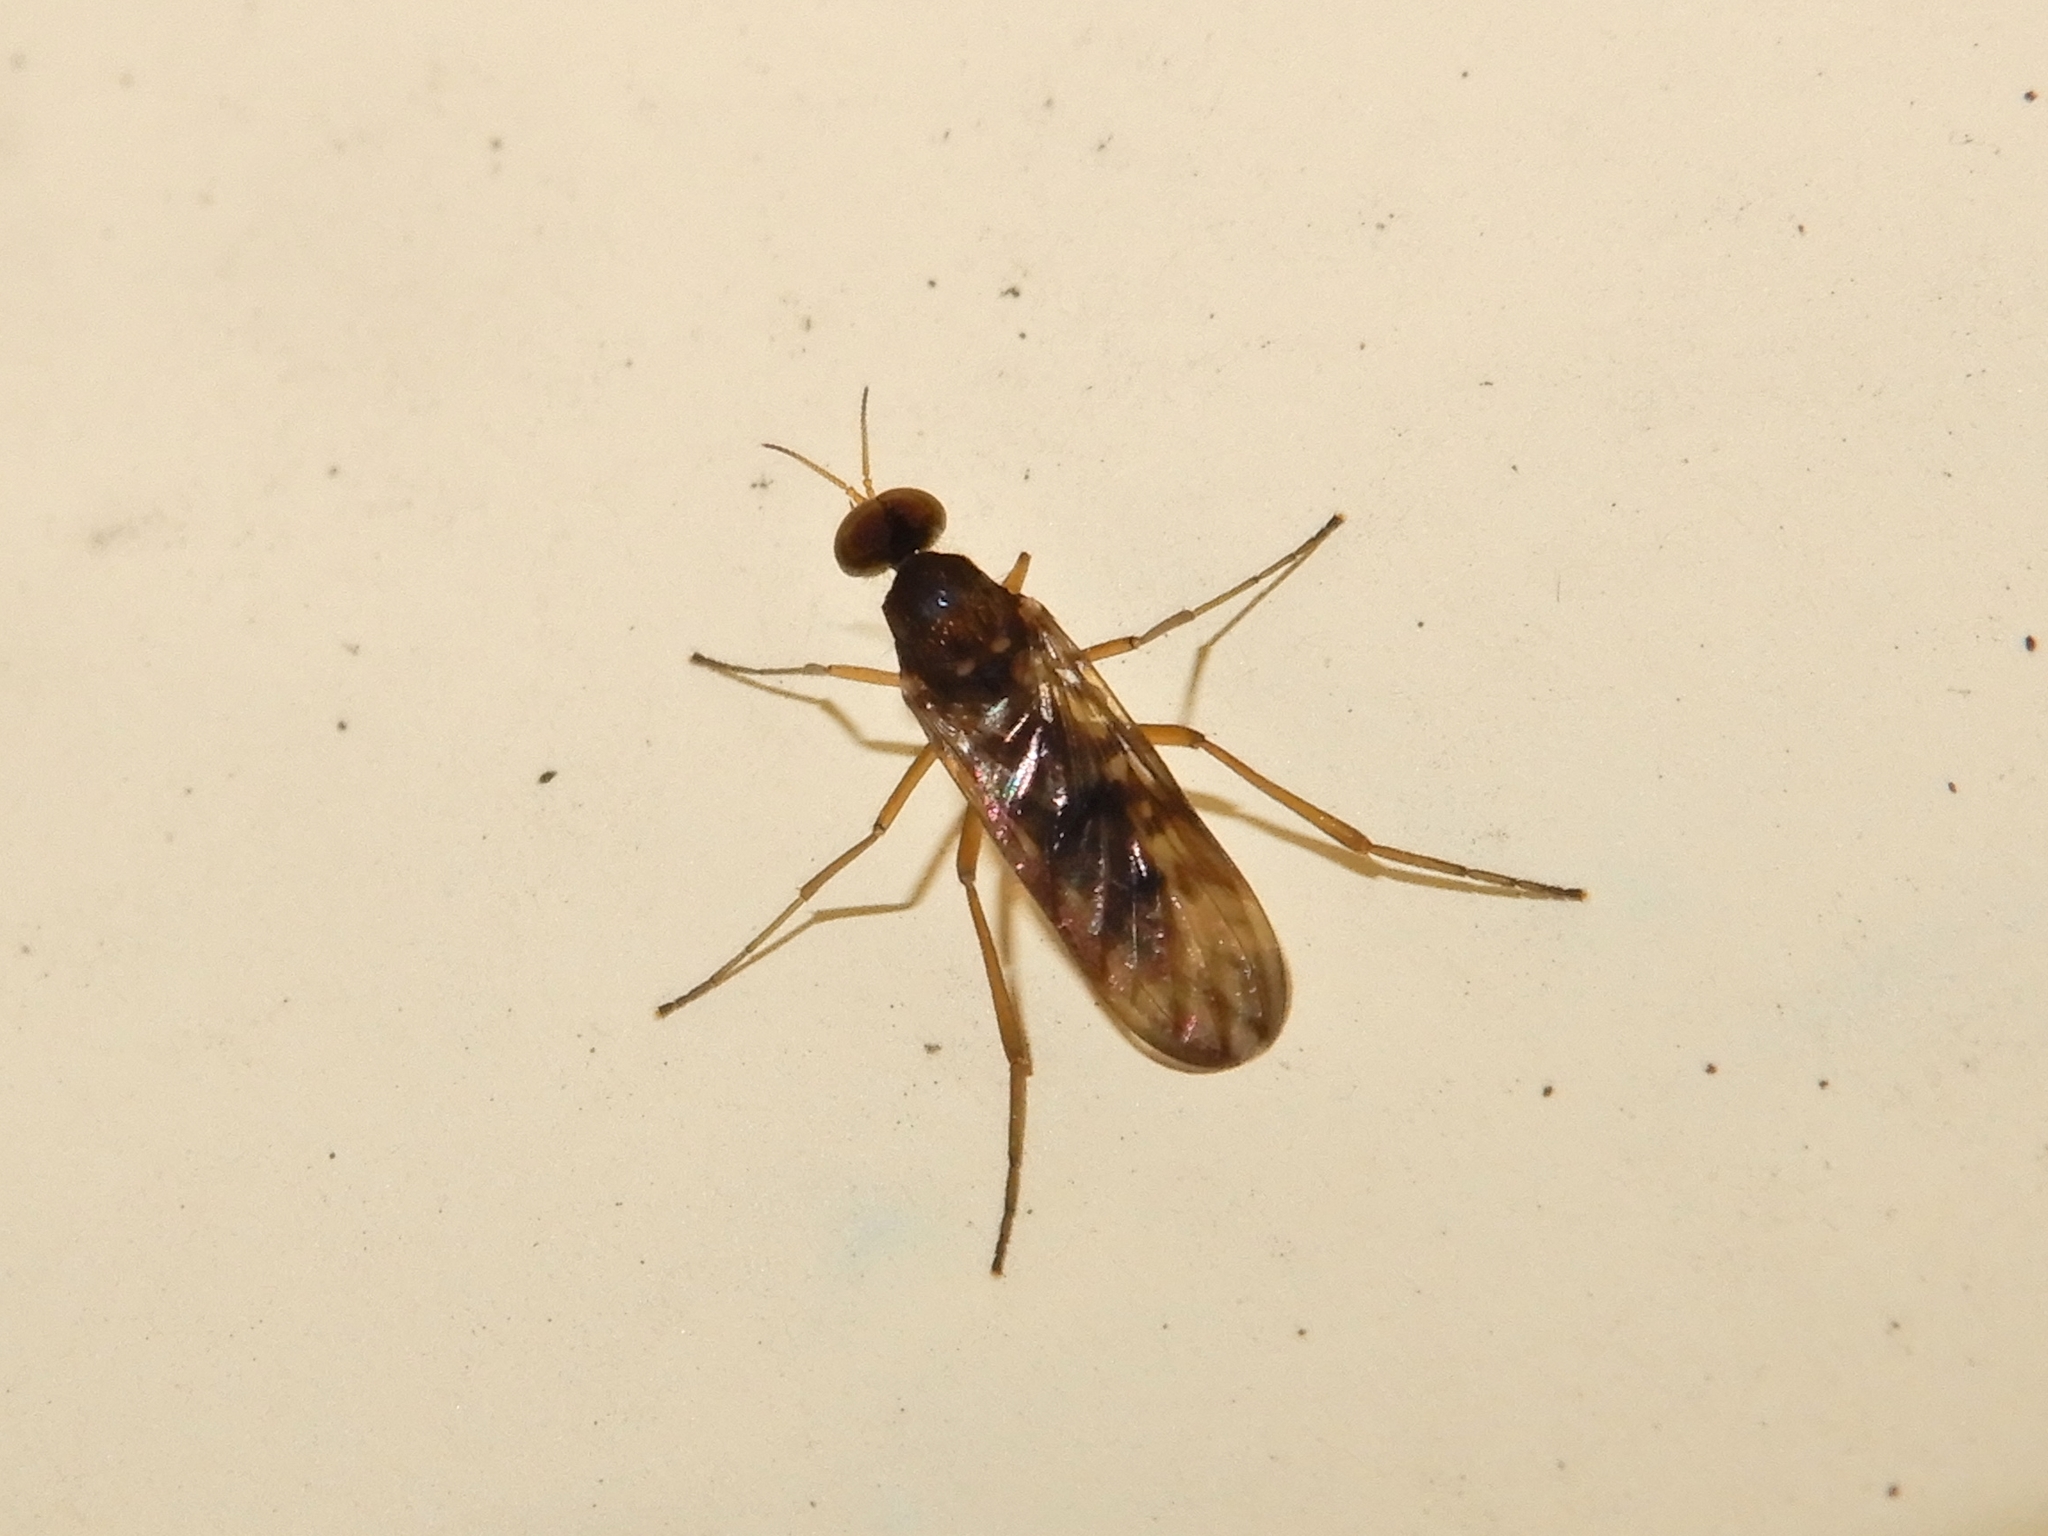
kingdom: Animalia
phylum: Arthropoda
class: Insecta
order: Diptera
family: Anisopodidae
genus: Sylvicola
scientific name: Sylvicola neozelandicus
